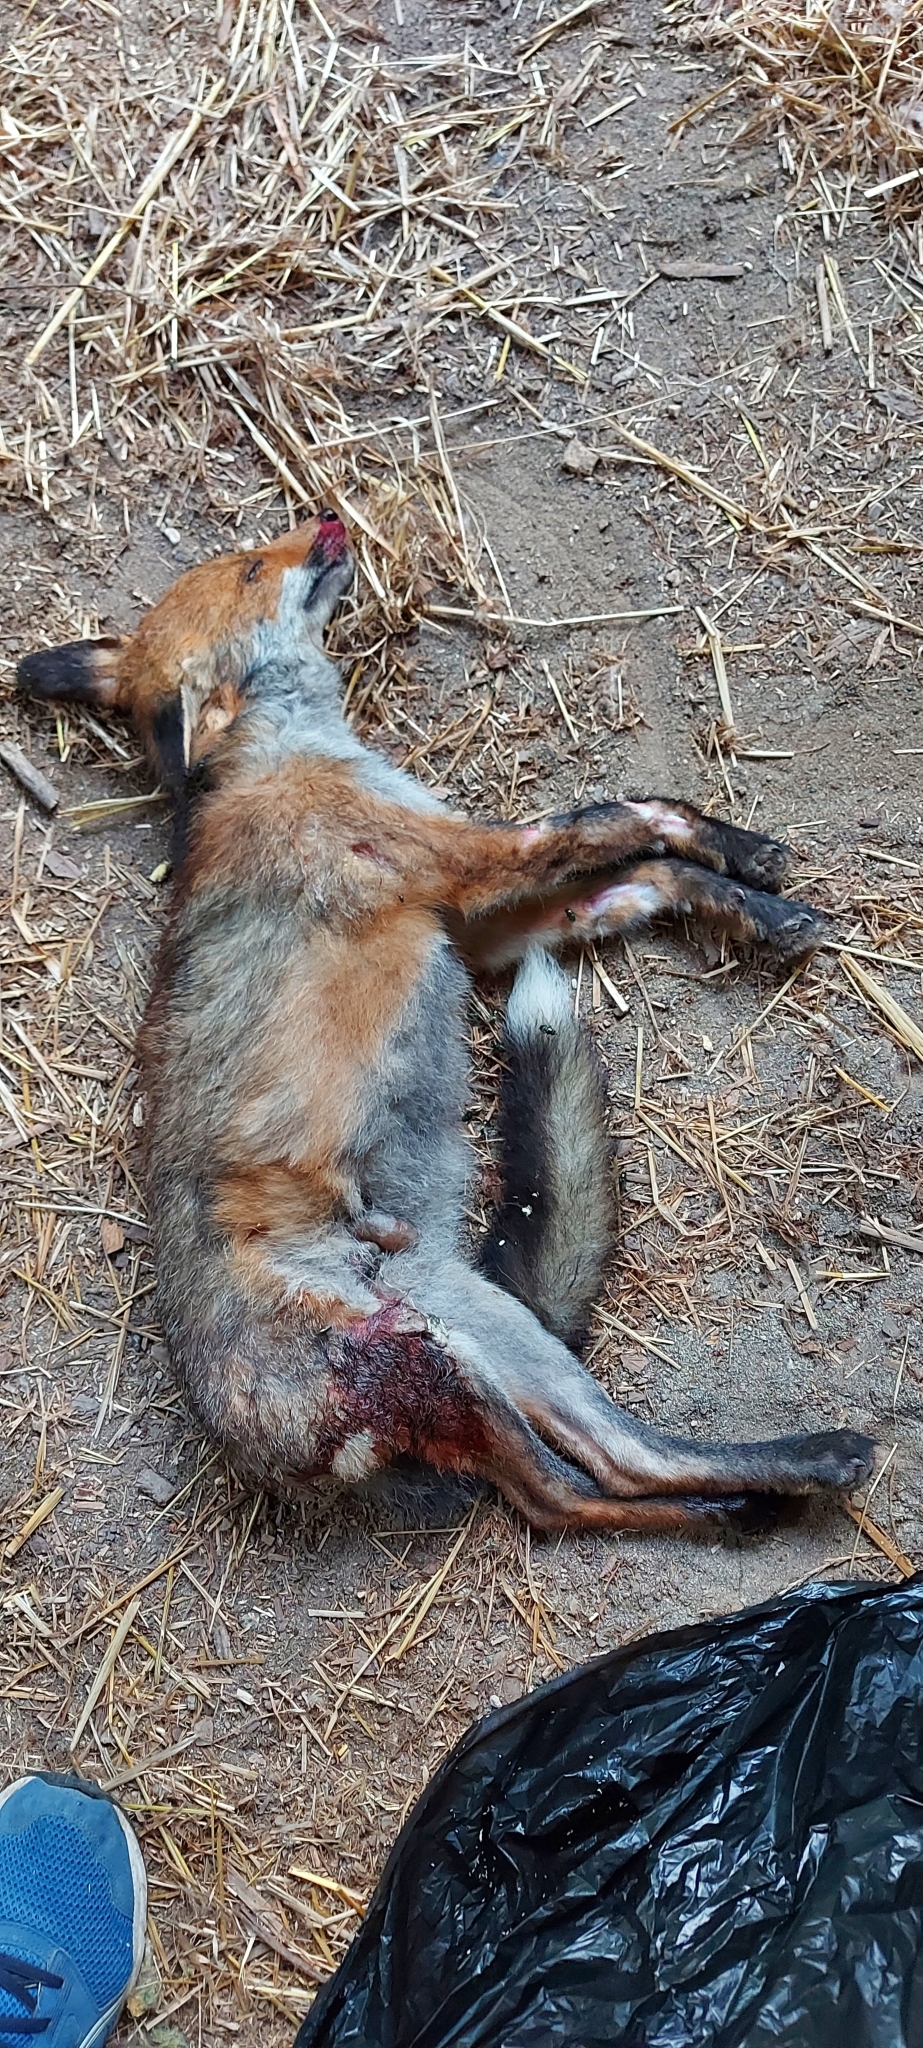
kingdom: Animalia
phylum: Chordata
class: Mammalia
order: Carnivora
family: Canidae
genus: Vulpes
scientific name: Vulpes vulpes
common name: Red fox
